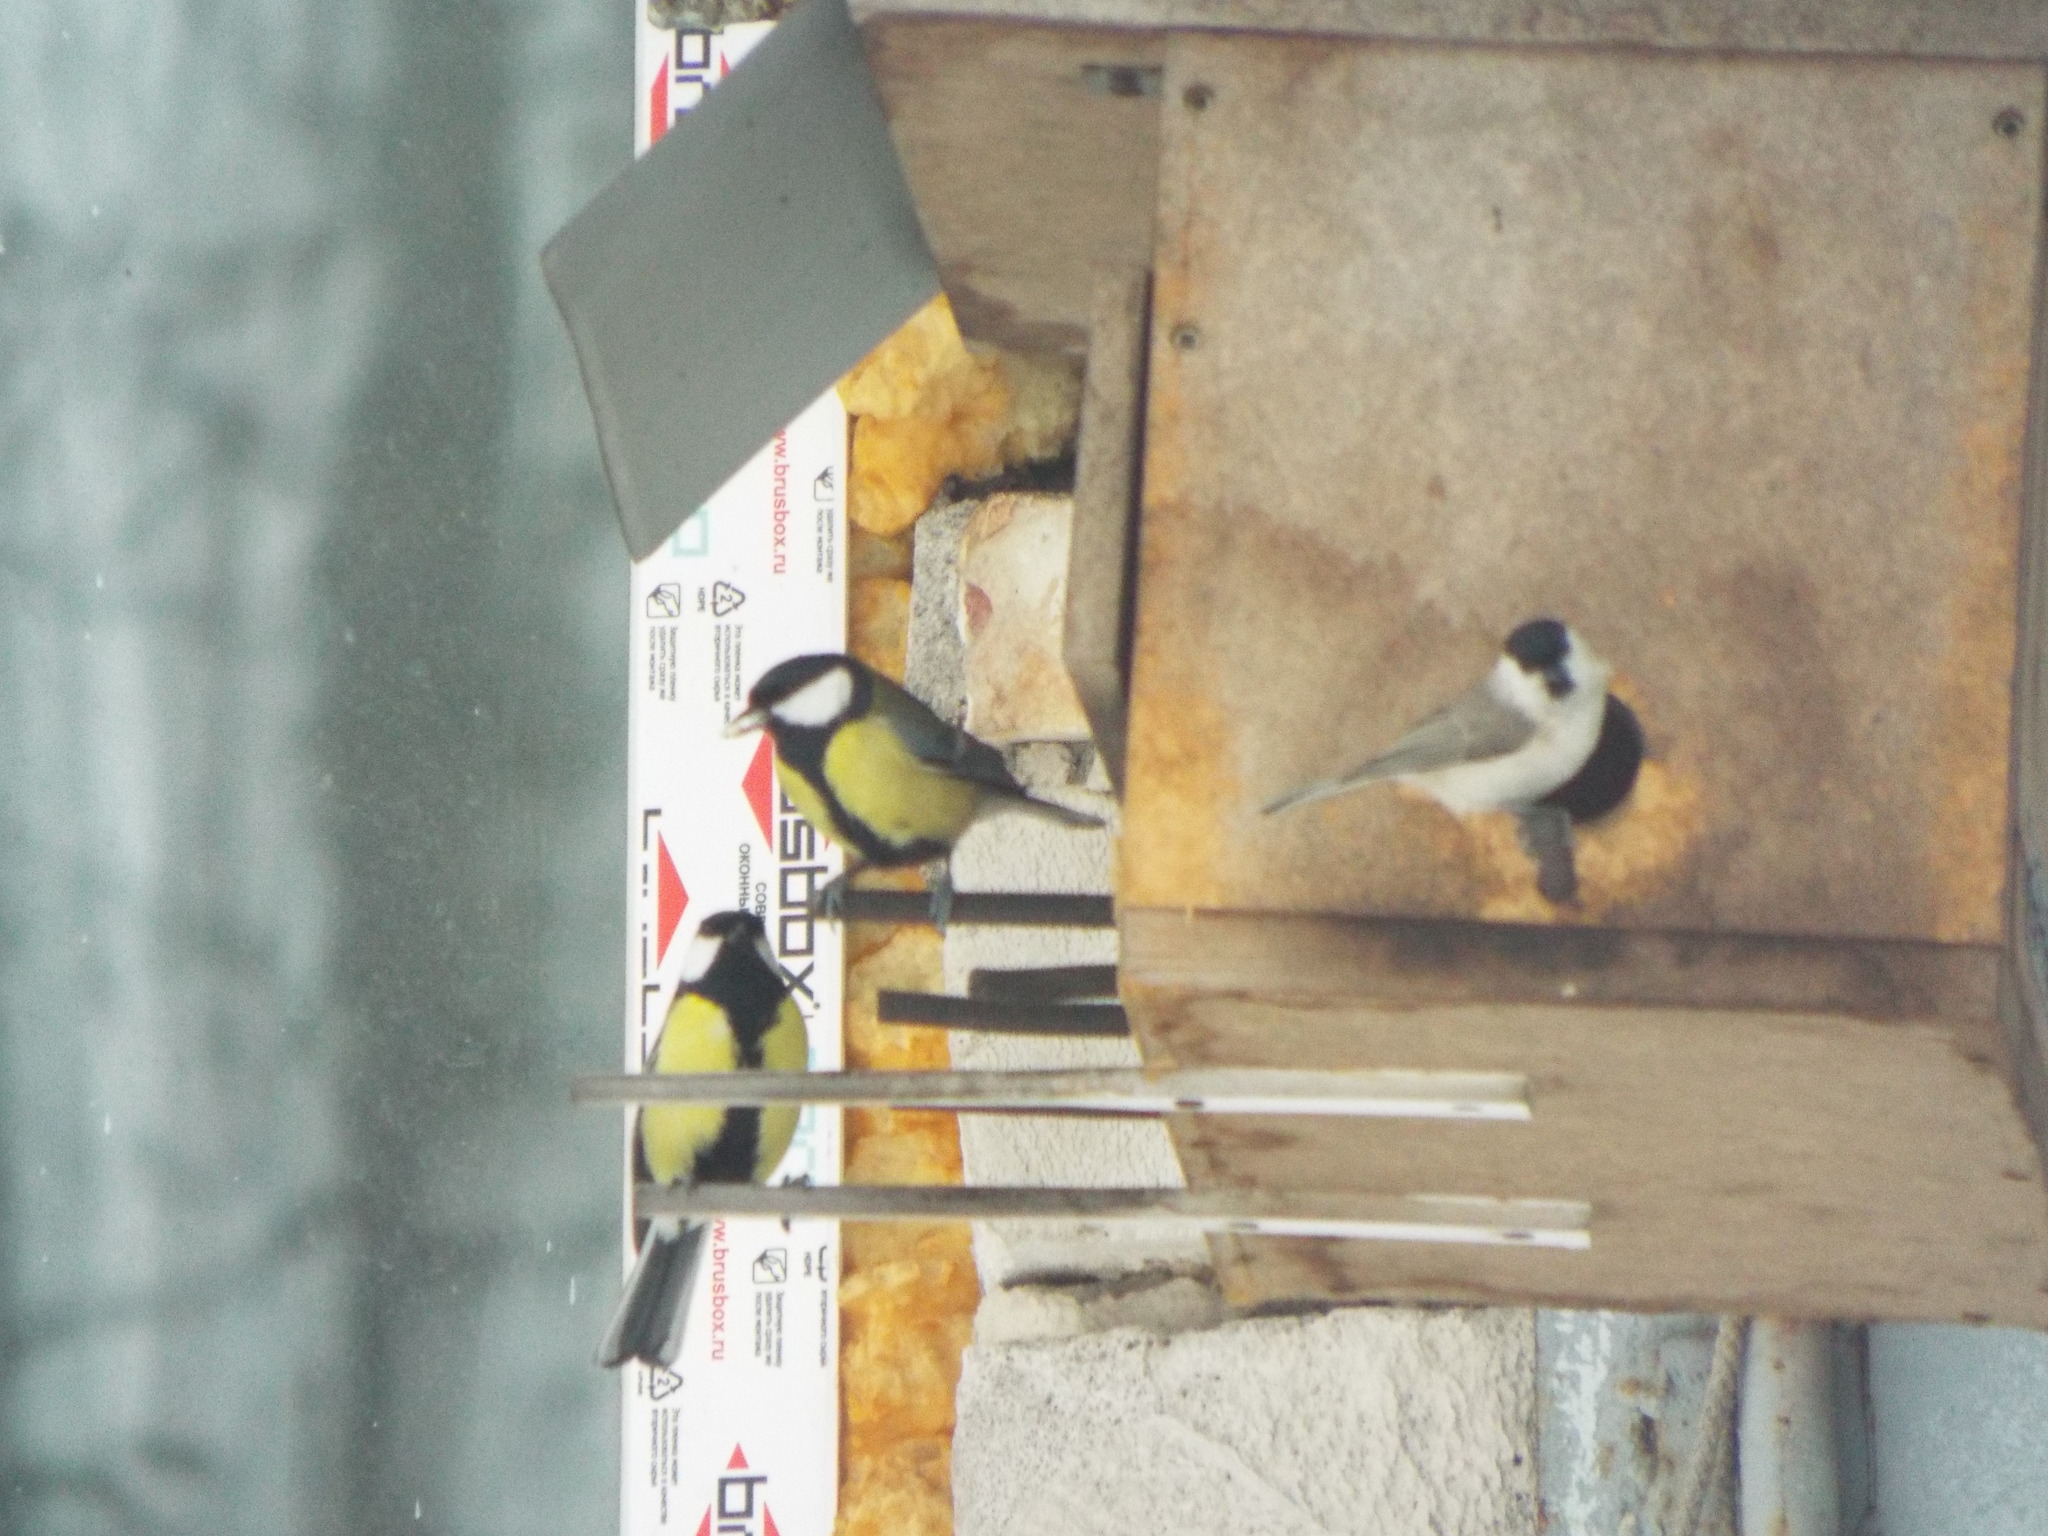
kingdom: Animalia
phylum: Chordata
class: Aves
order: Passeriformes
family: Paridae
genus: Poecile
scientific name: Poecile palustris
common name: Marsh tit
